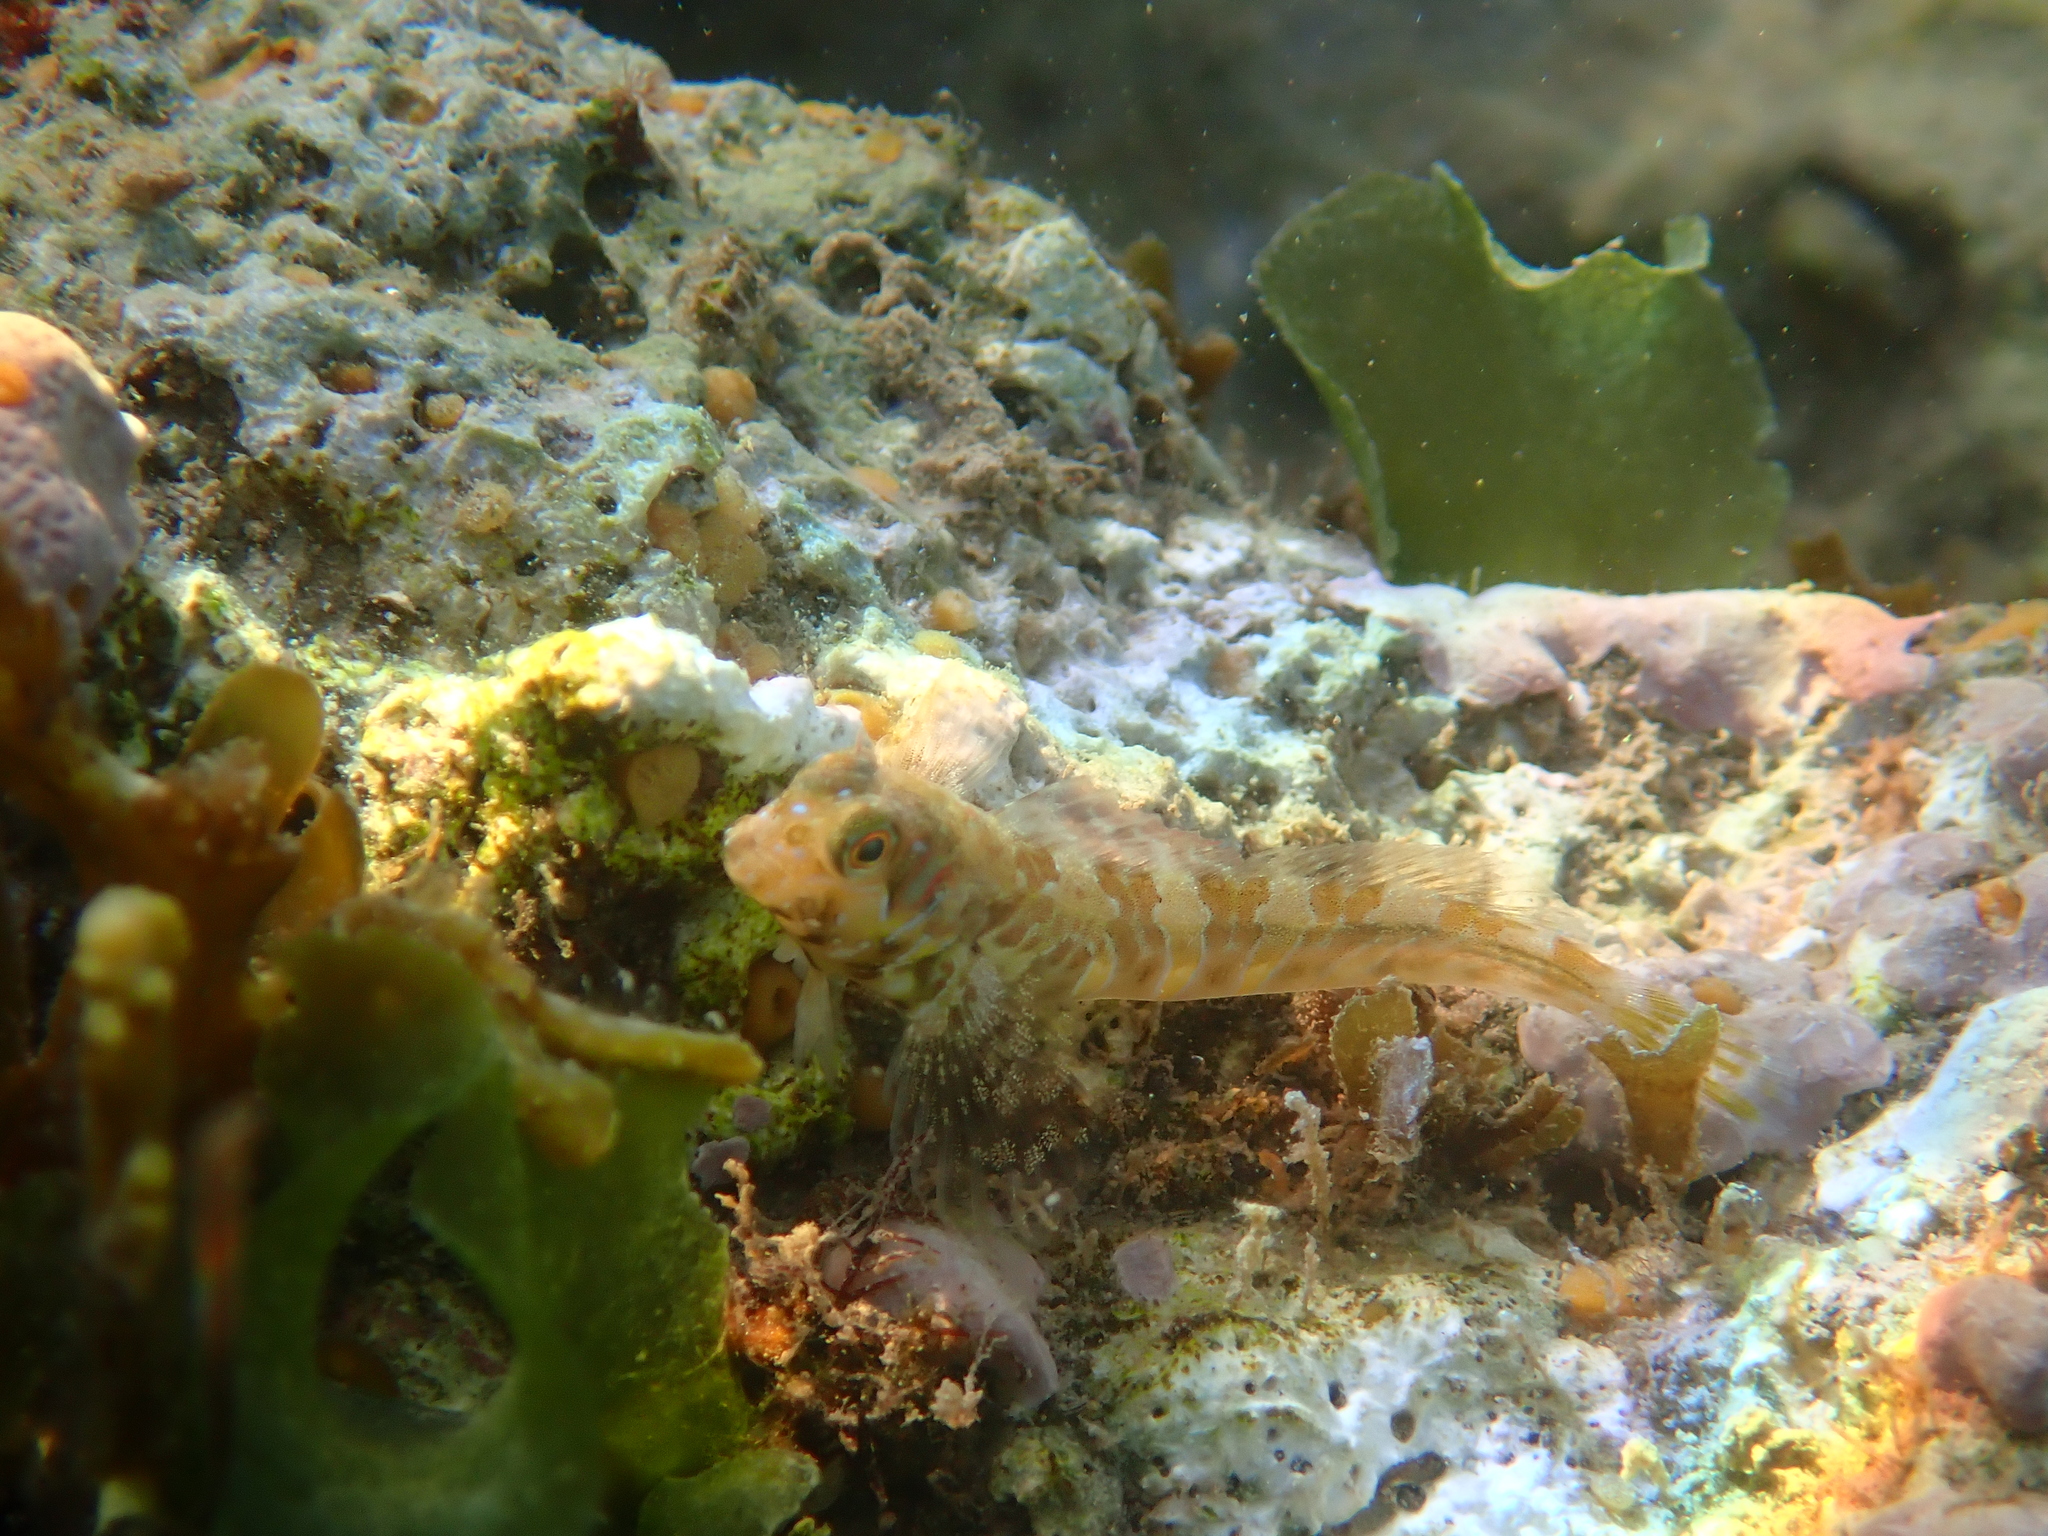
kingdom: Animalia
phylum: Chordata
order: Perciformes
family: Blenniidae
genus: Aidablennius
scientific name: Aidablennius sphynx
